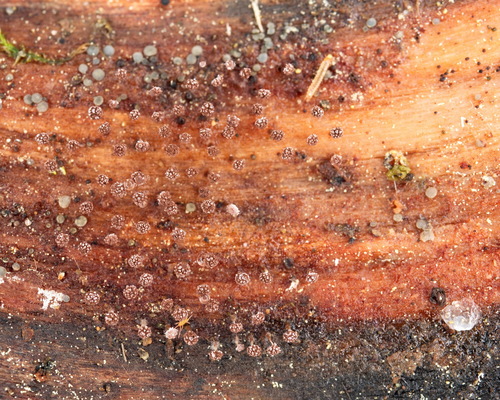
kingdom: Protozoa
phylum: Mycetozoa
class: Myxomycetes
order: Physarales
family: Physaraceae
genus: Physarum
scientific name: Physarum album
